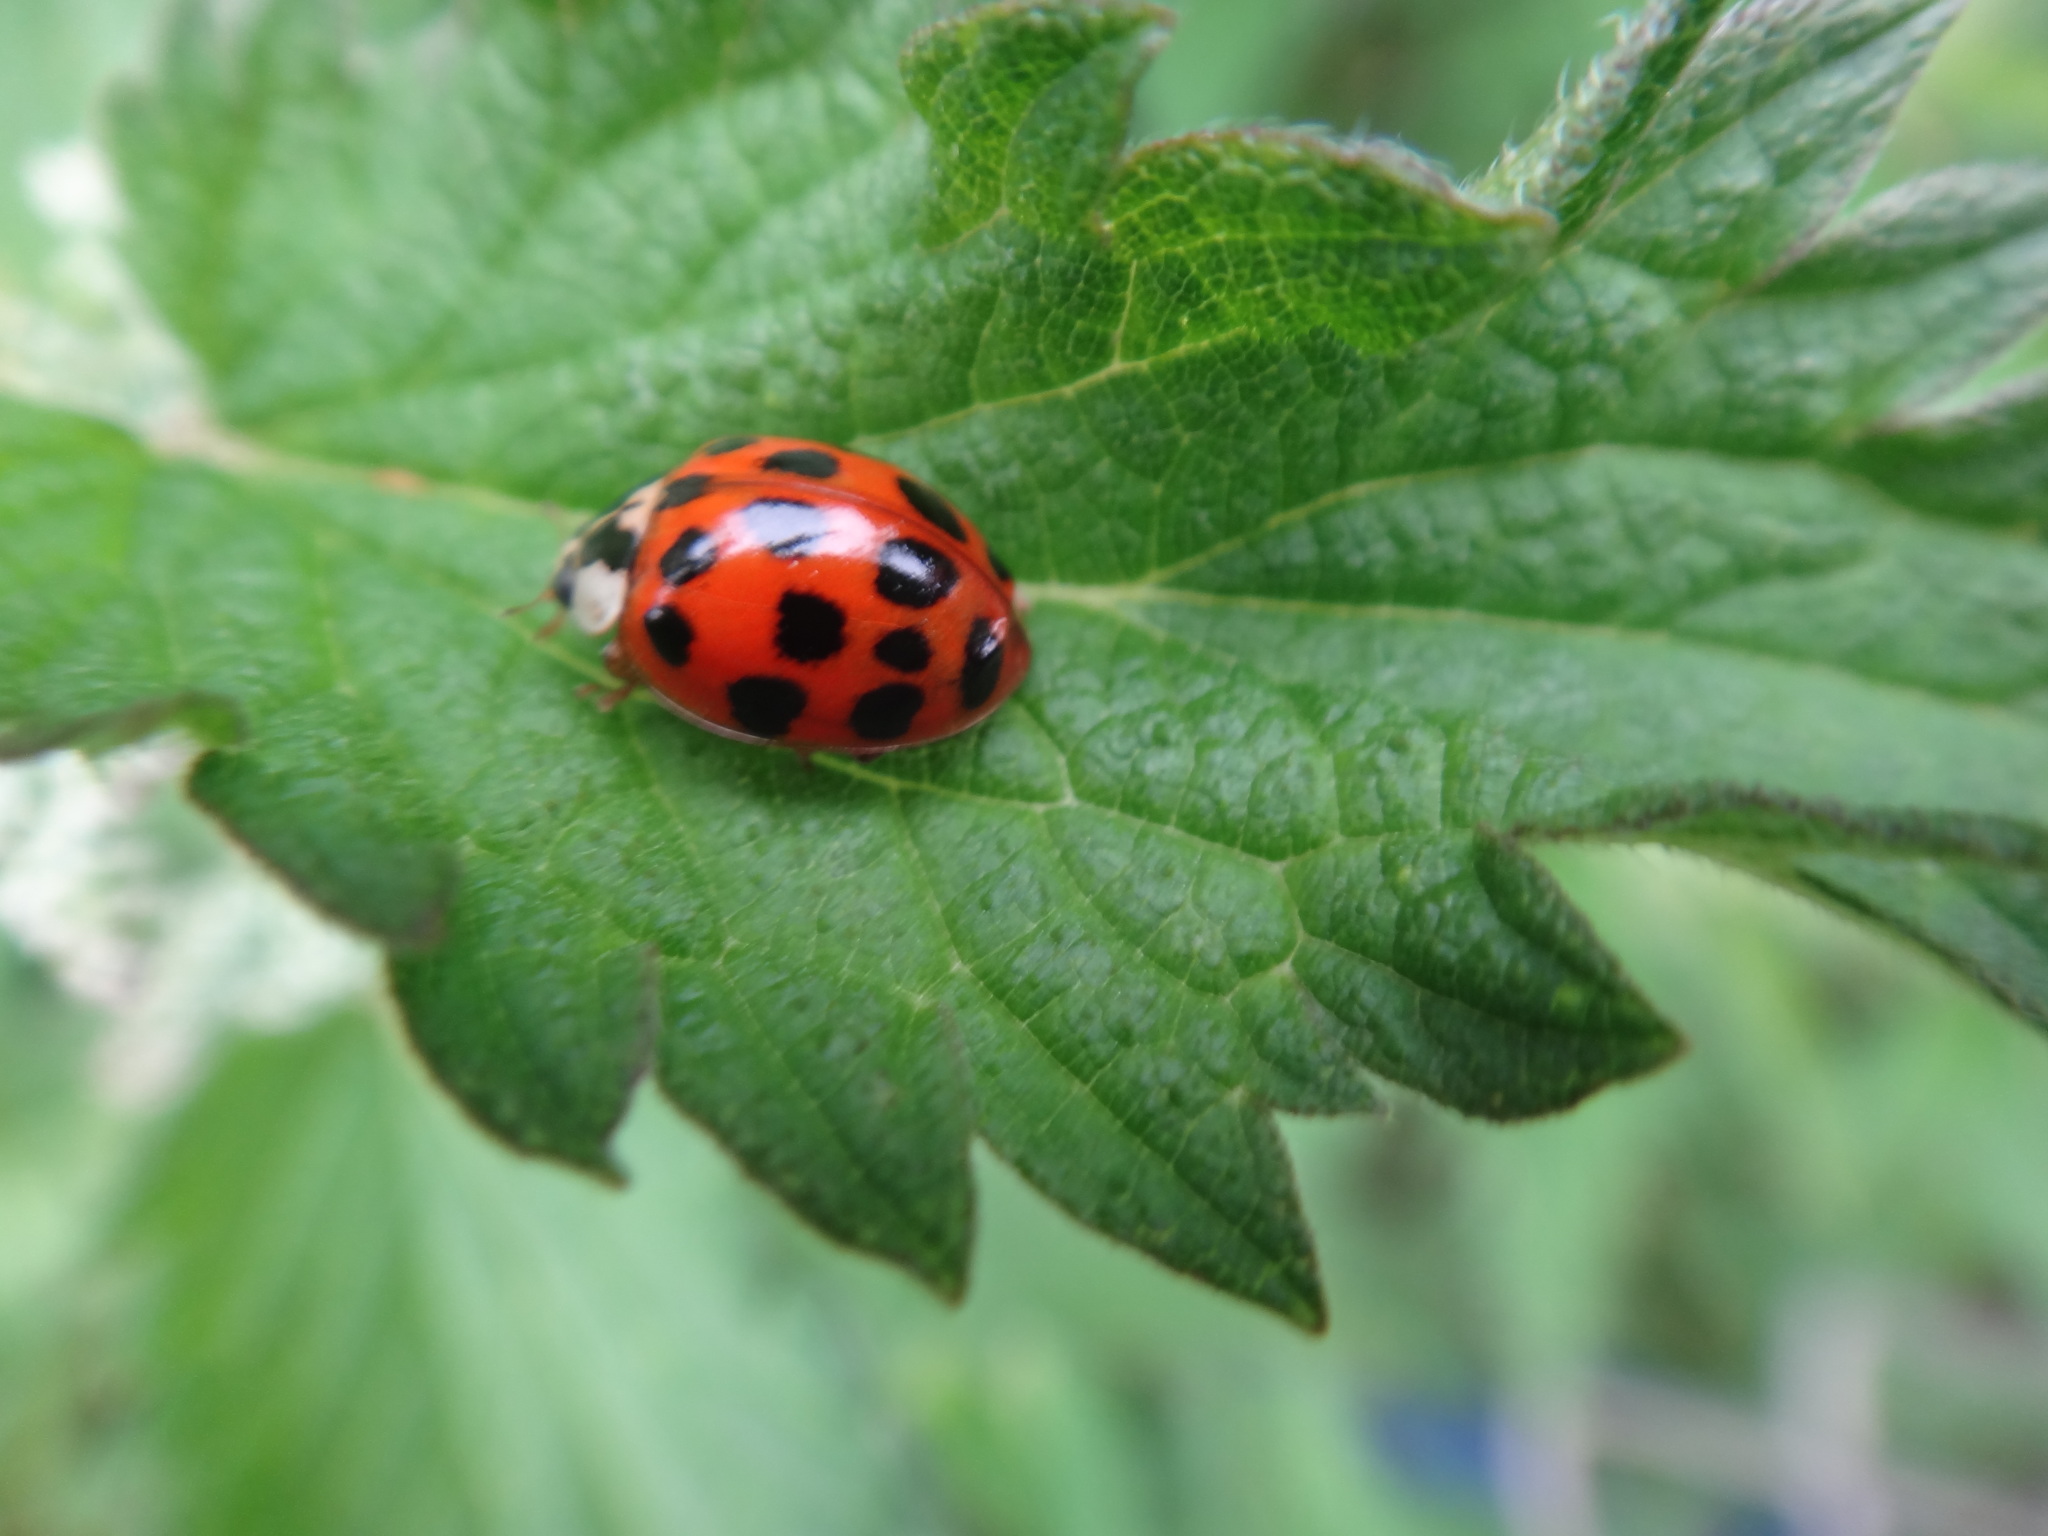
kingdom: Animalia
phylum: Arthropoda
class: Insecta
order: Coleoptera
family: Coccinellidae
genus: Harmonia
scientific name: Harmonia axyridis
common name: Harlequin ladybird
